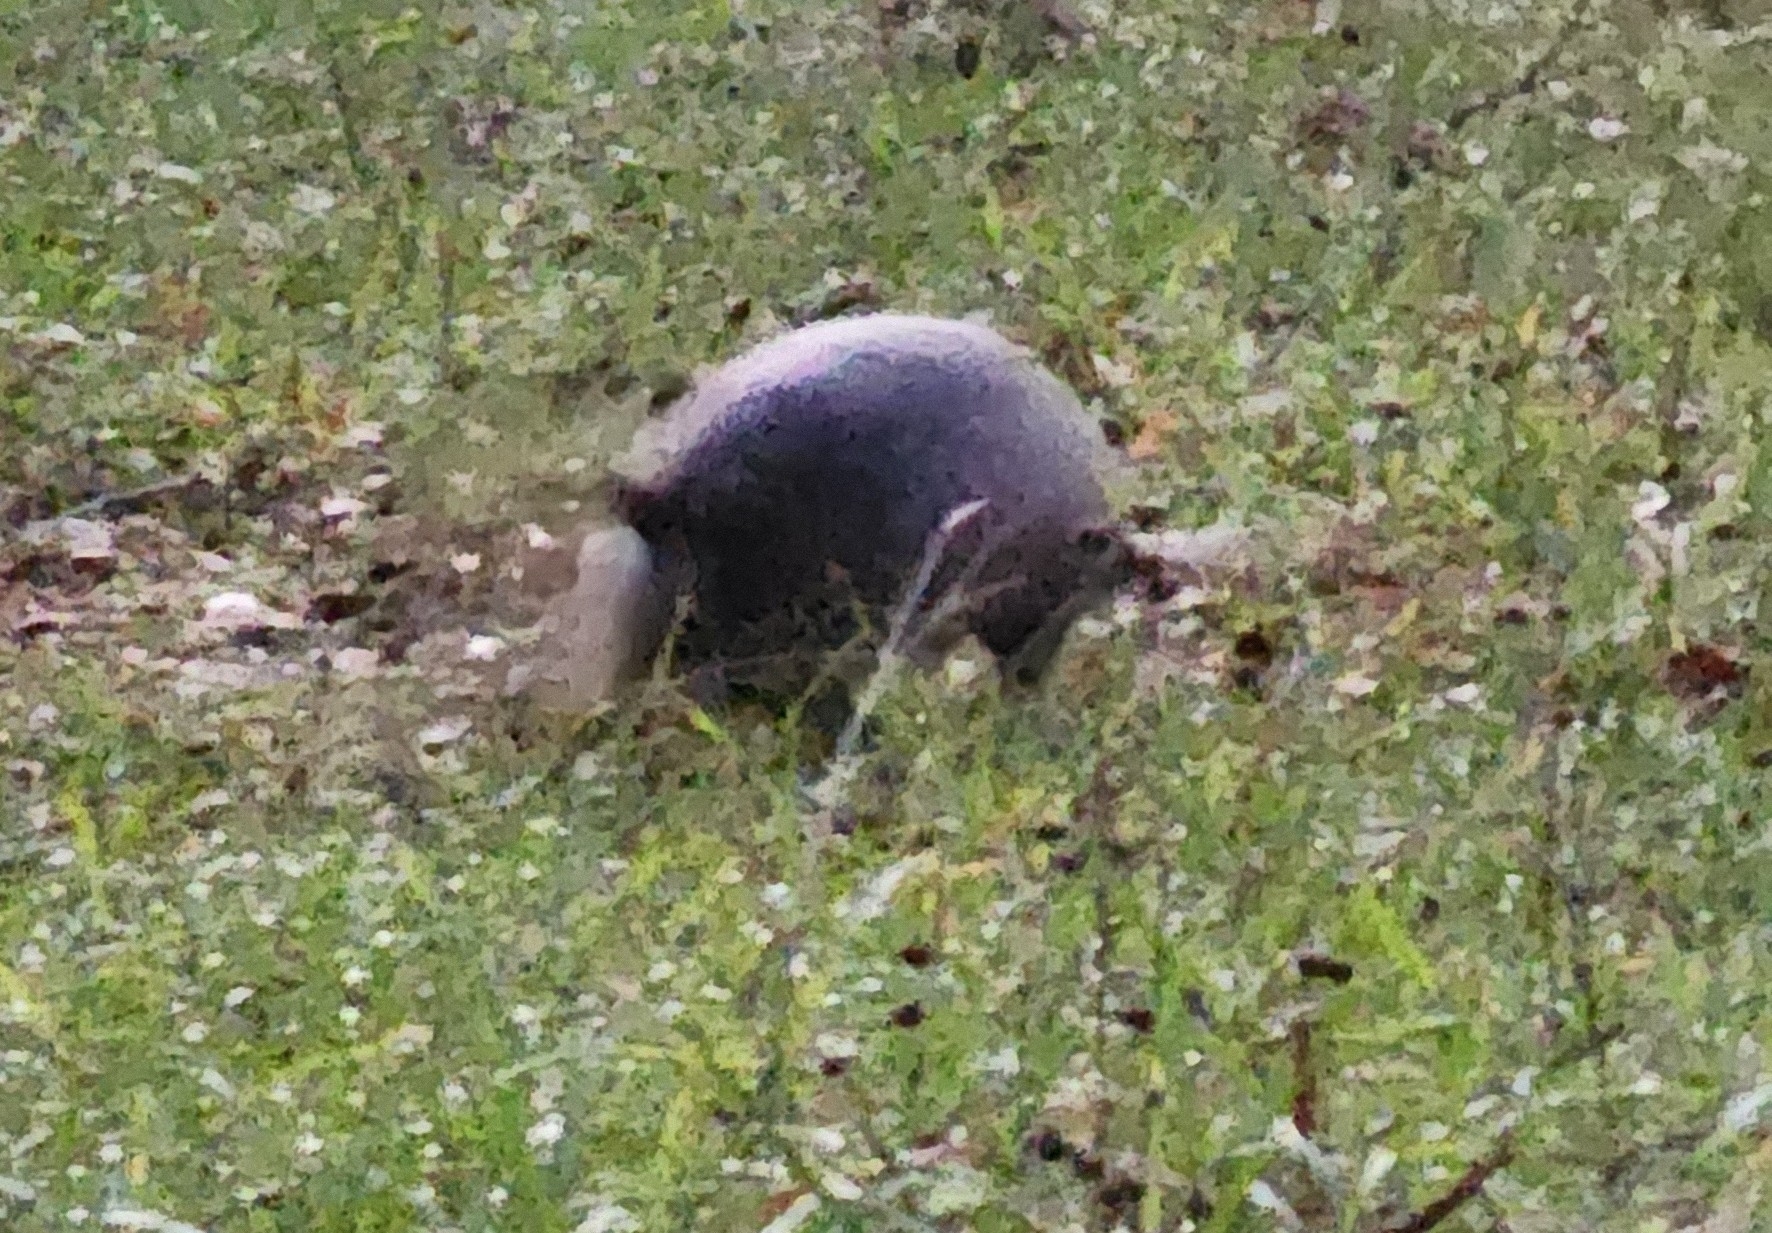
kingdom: Animalia
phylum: Chordata
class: Mammalia
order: Cingulata
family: Dasypodidae
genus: Dasypus
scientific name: Dasypus novemcinctus
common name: Nine-banded armadillo
